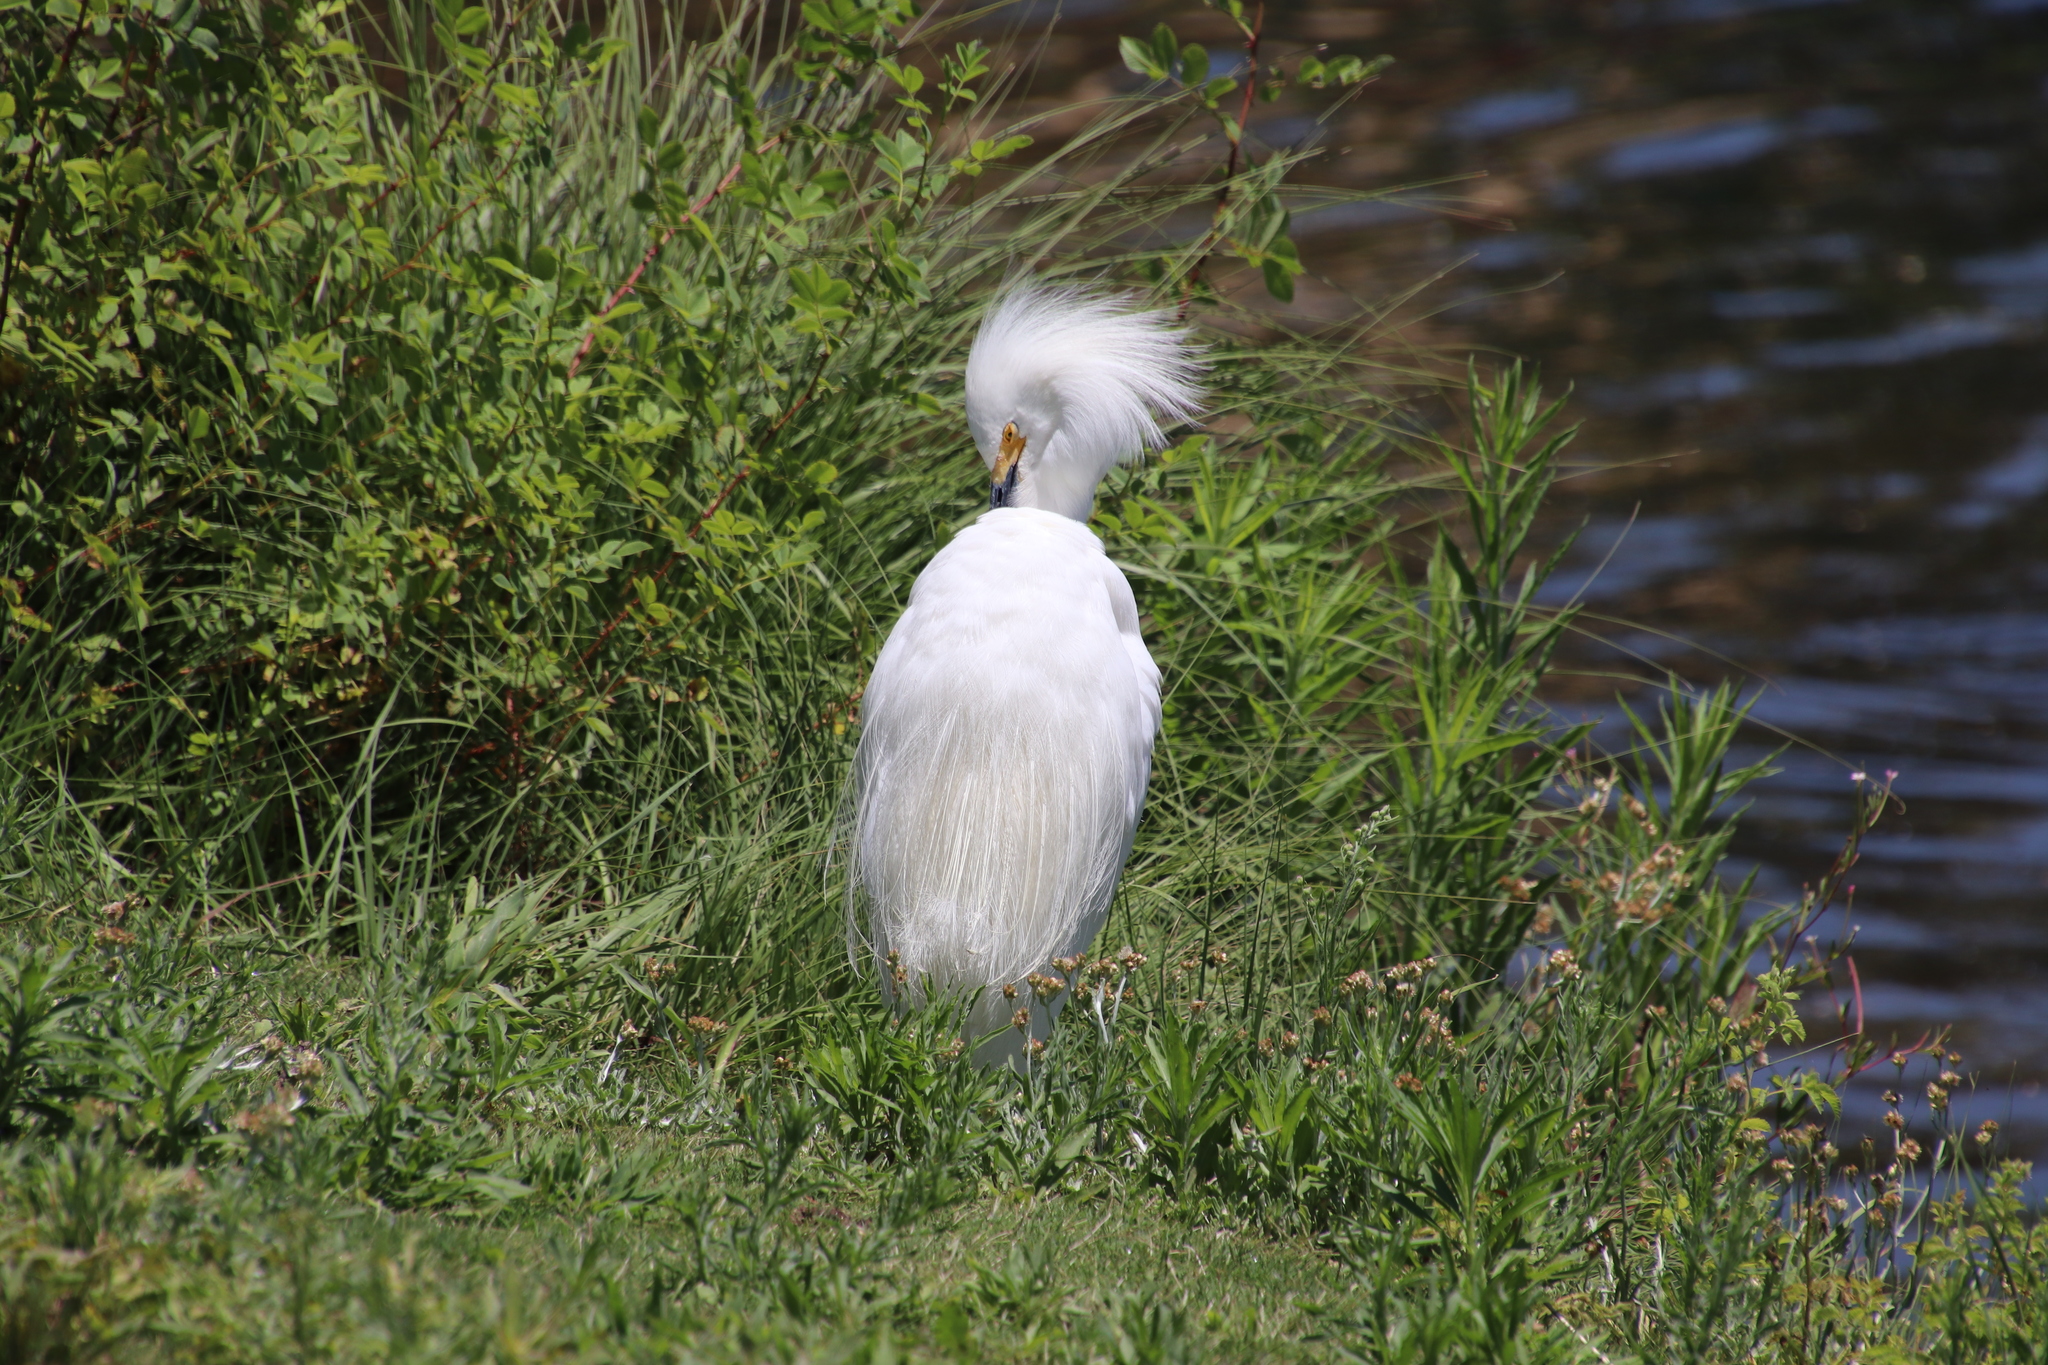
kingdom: Animalia
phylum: Chordata
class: Aves
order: Pelecaniformes
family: Ardeidae
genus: Egretta
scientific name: Egretta thula
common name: Snowy egret
